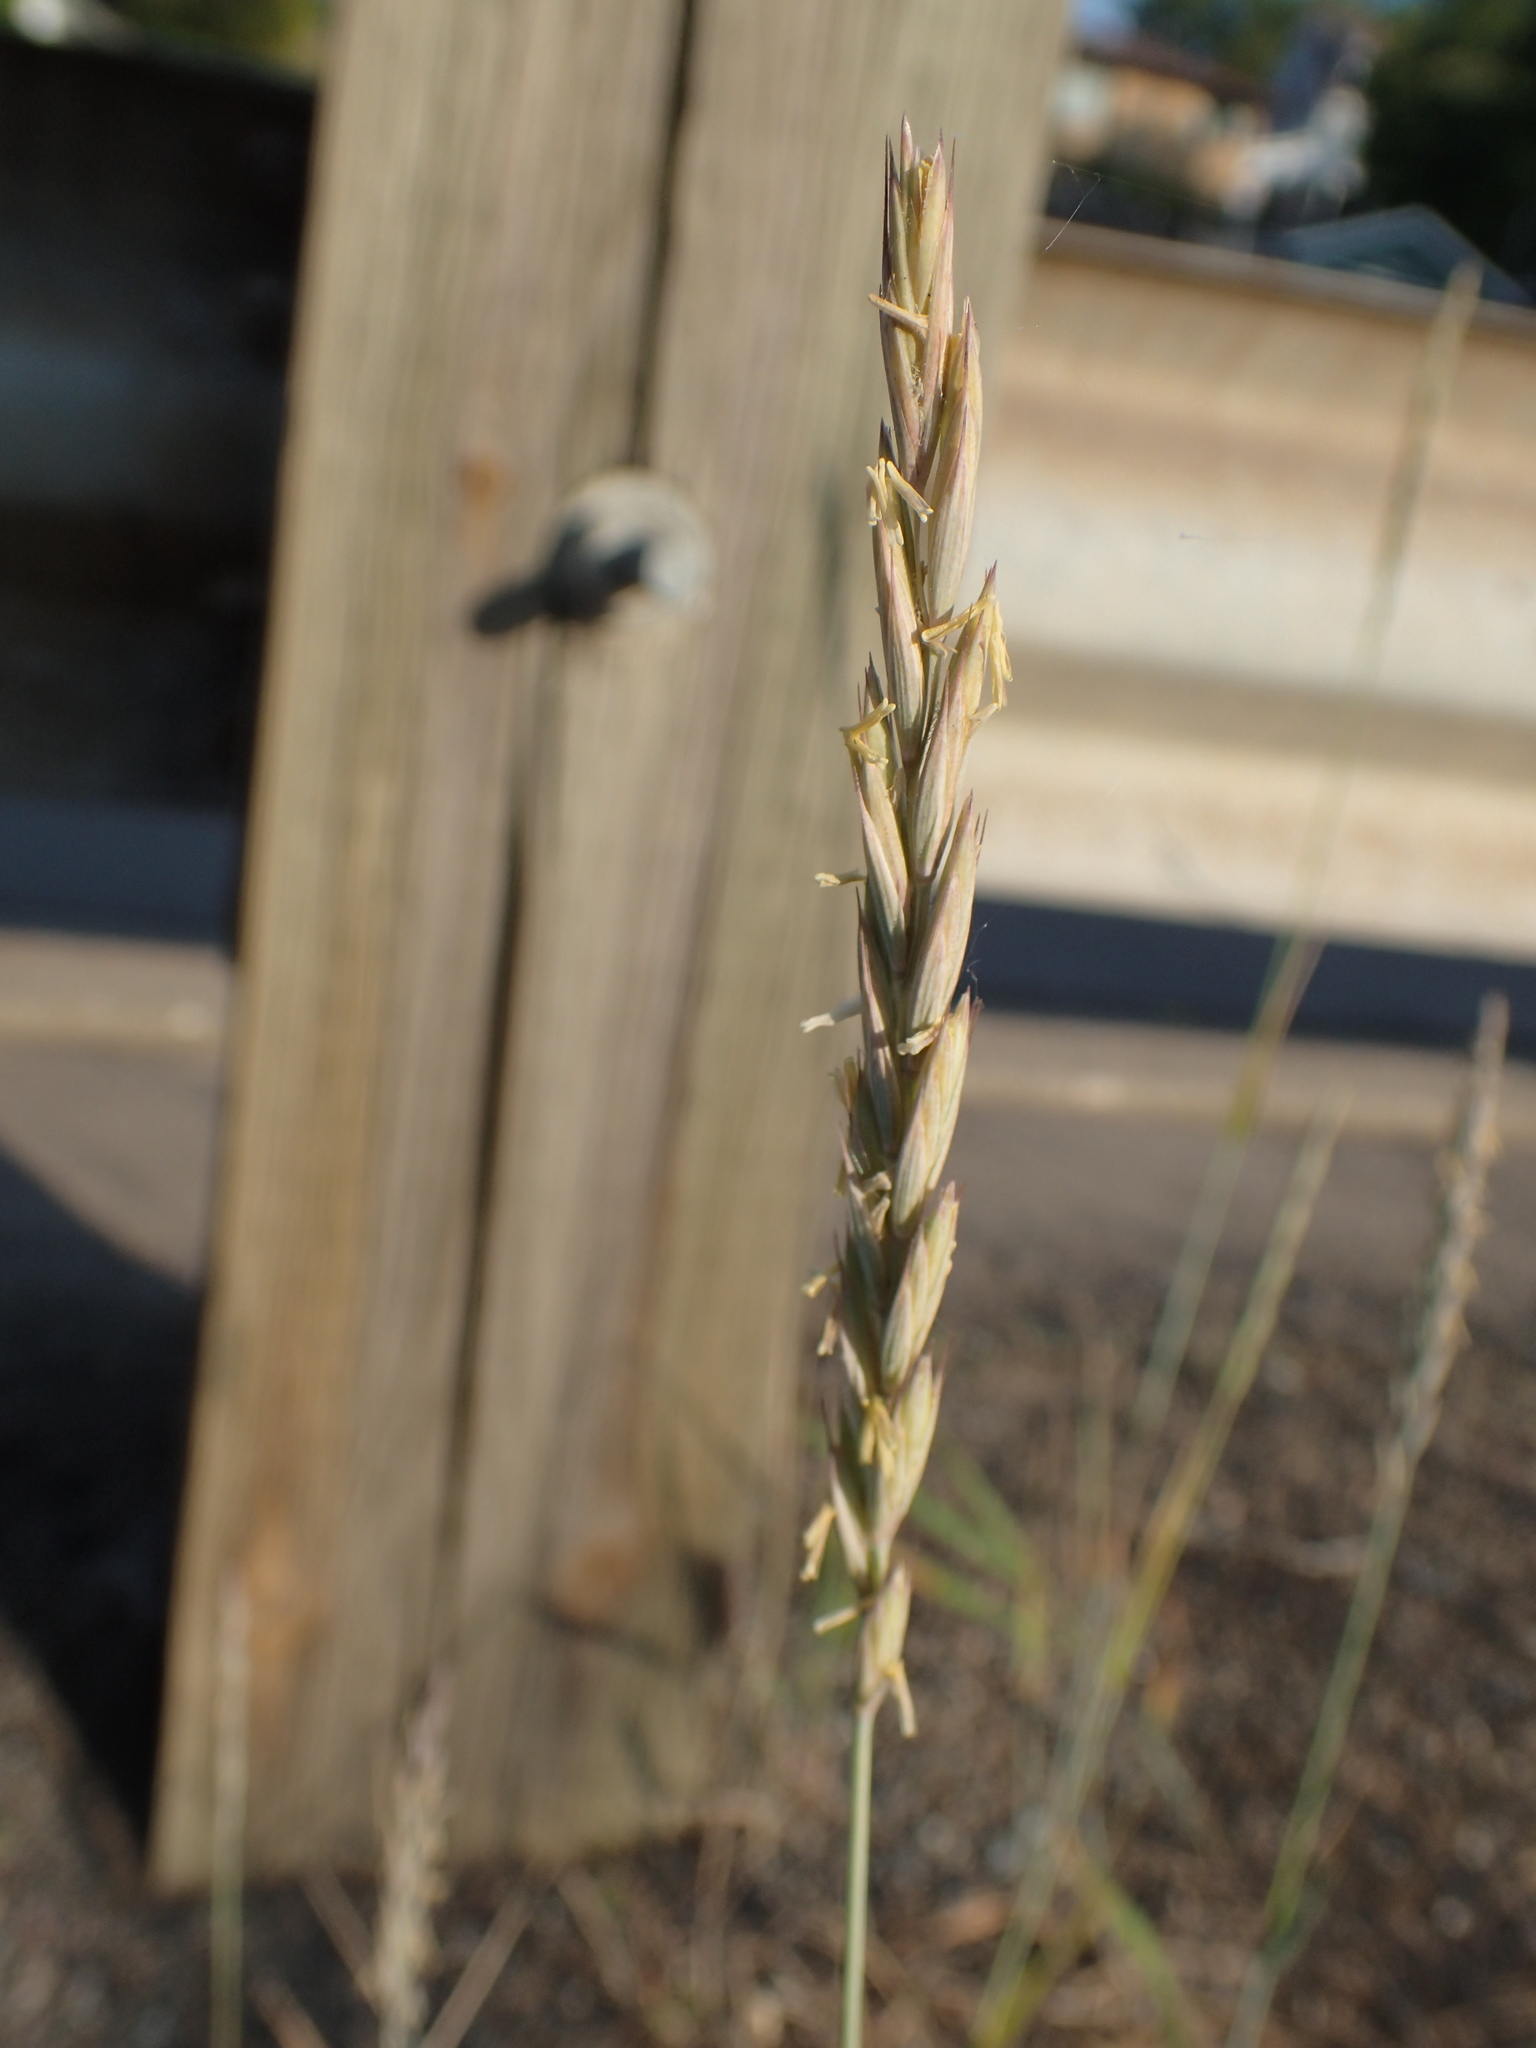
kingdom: Plantae
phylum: Tracheophyta
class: Liliopsida
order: Poales
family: Poaceae
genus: Elymus
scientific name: Elymus repens
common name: Quackgrass
